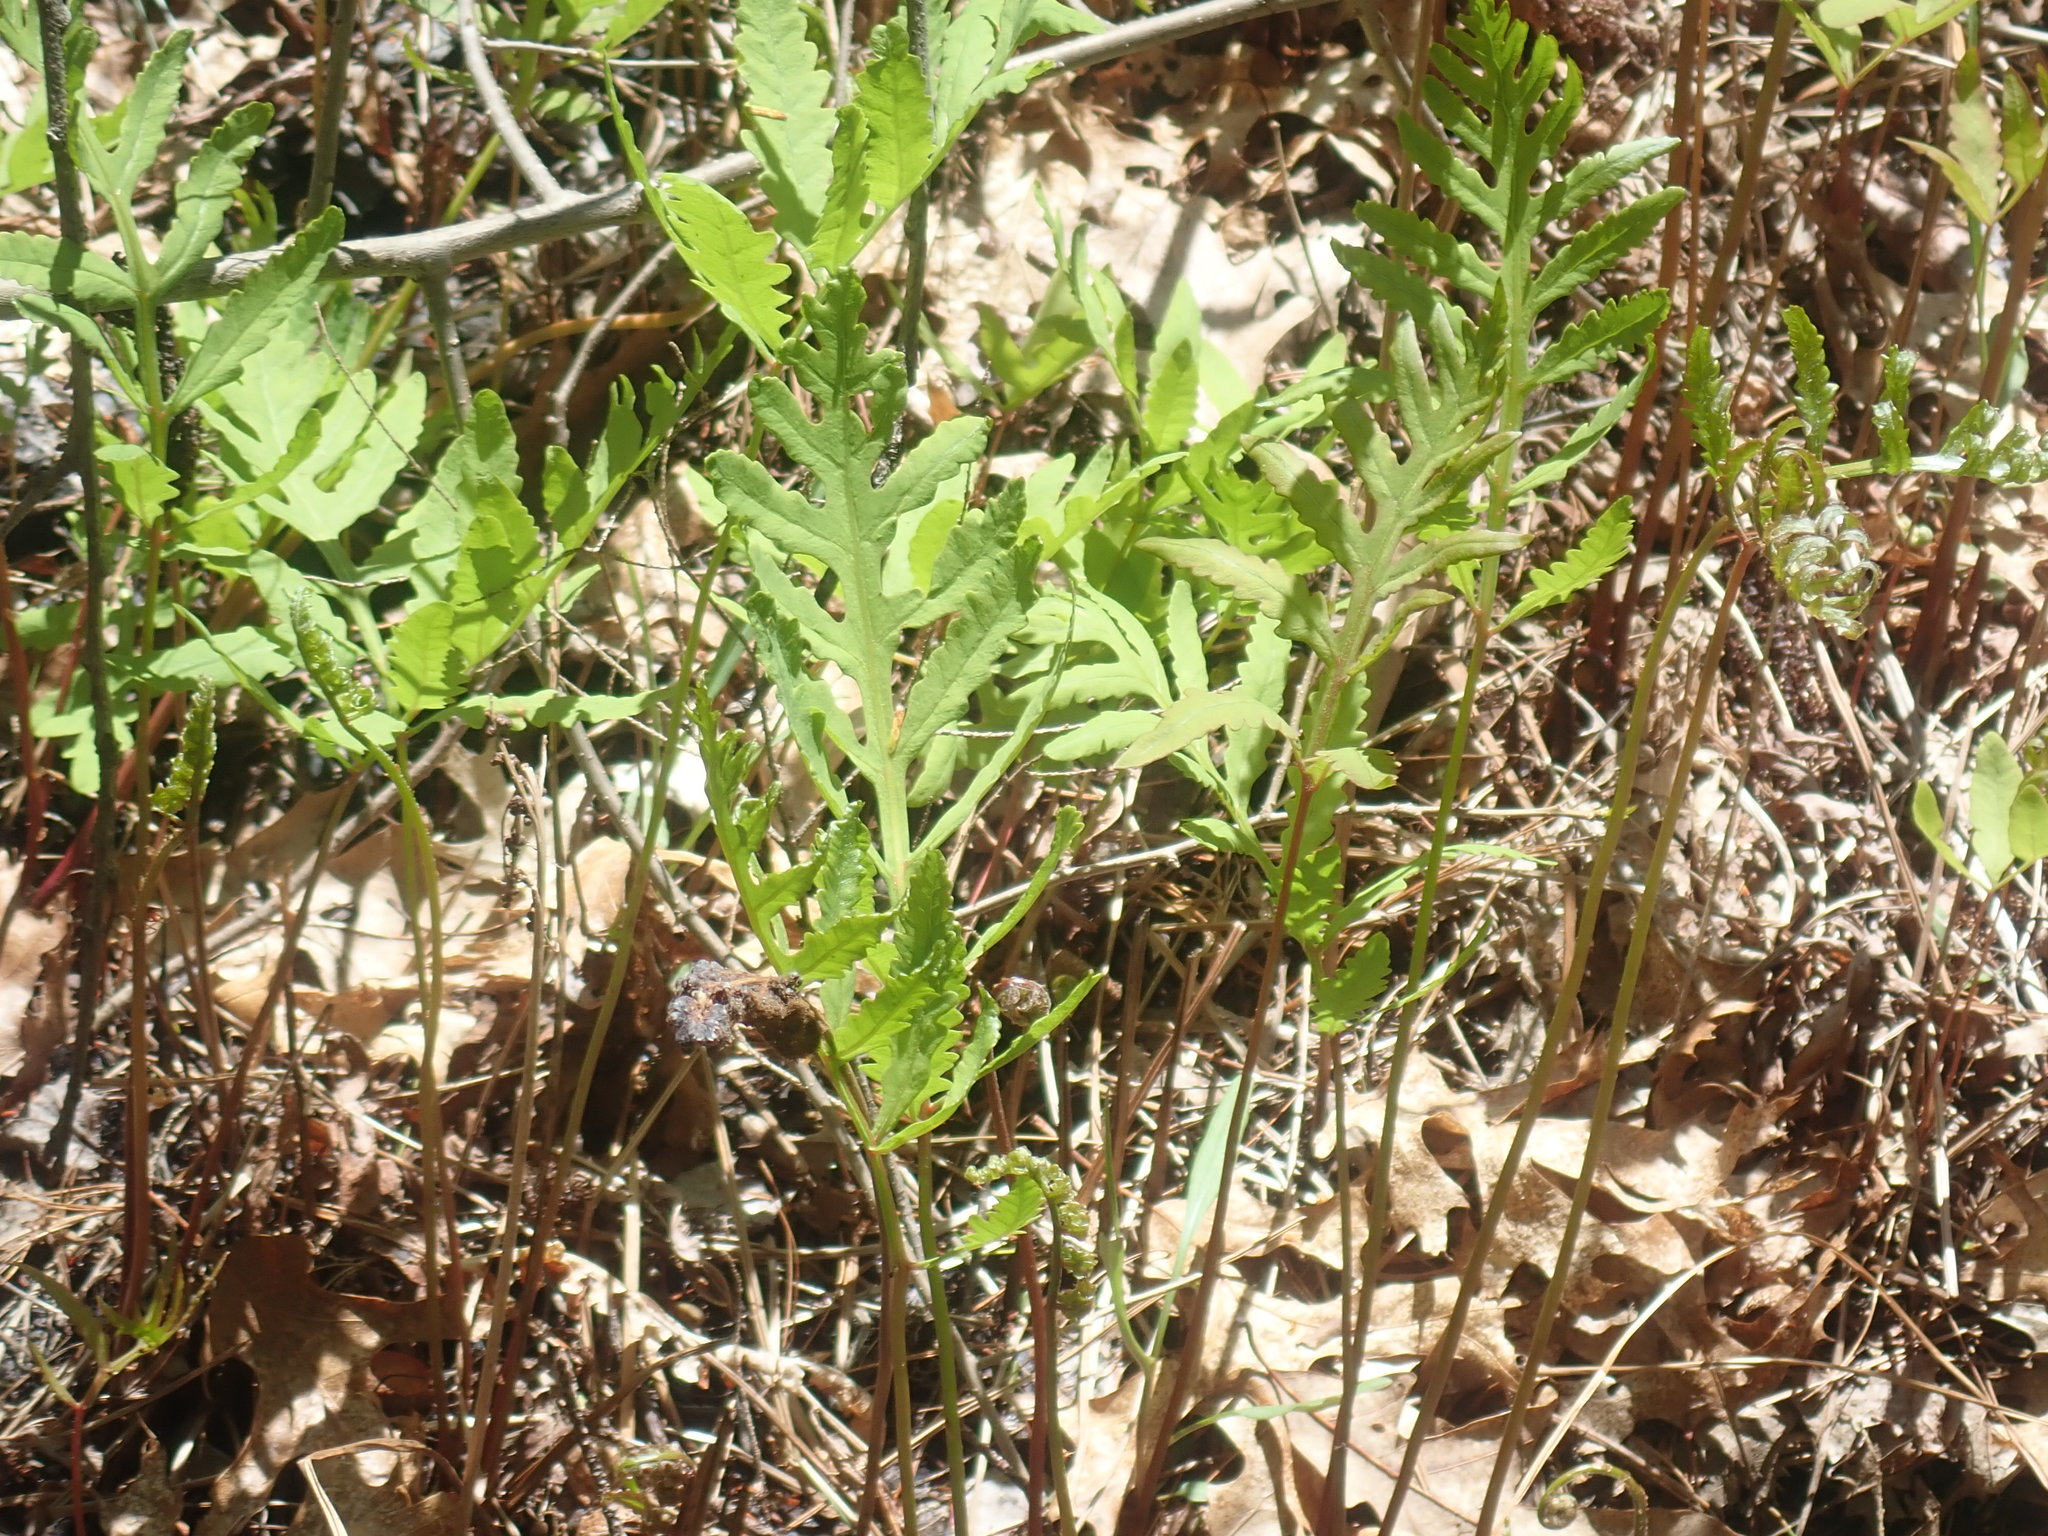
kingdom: Plantae
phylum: Tracheophyta
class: Polypodiopsida
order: Polypodiales
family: Onocleaceae
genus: Onoclea
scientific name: Onoclea sensibilis
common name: Sensitive fern
